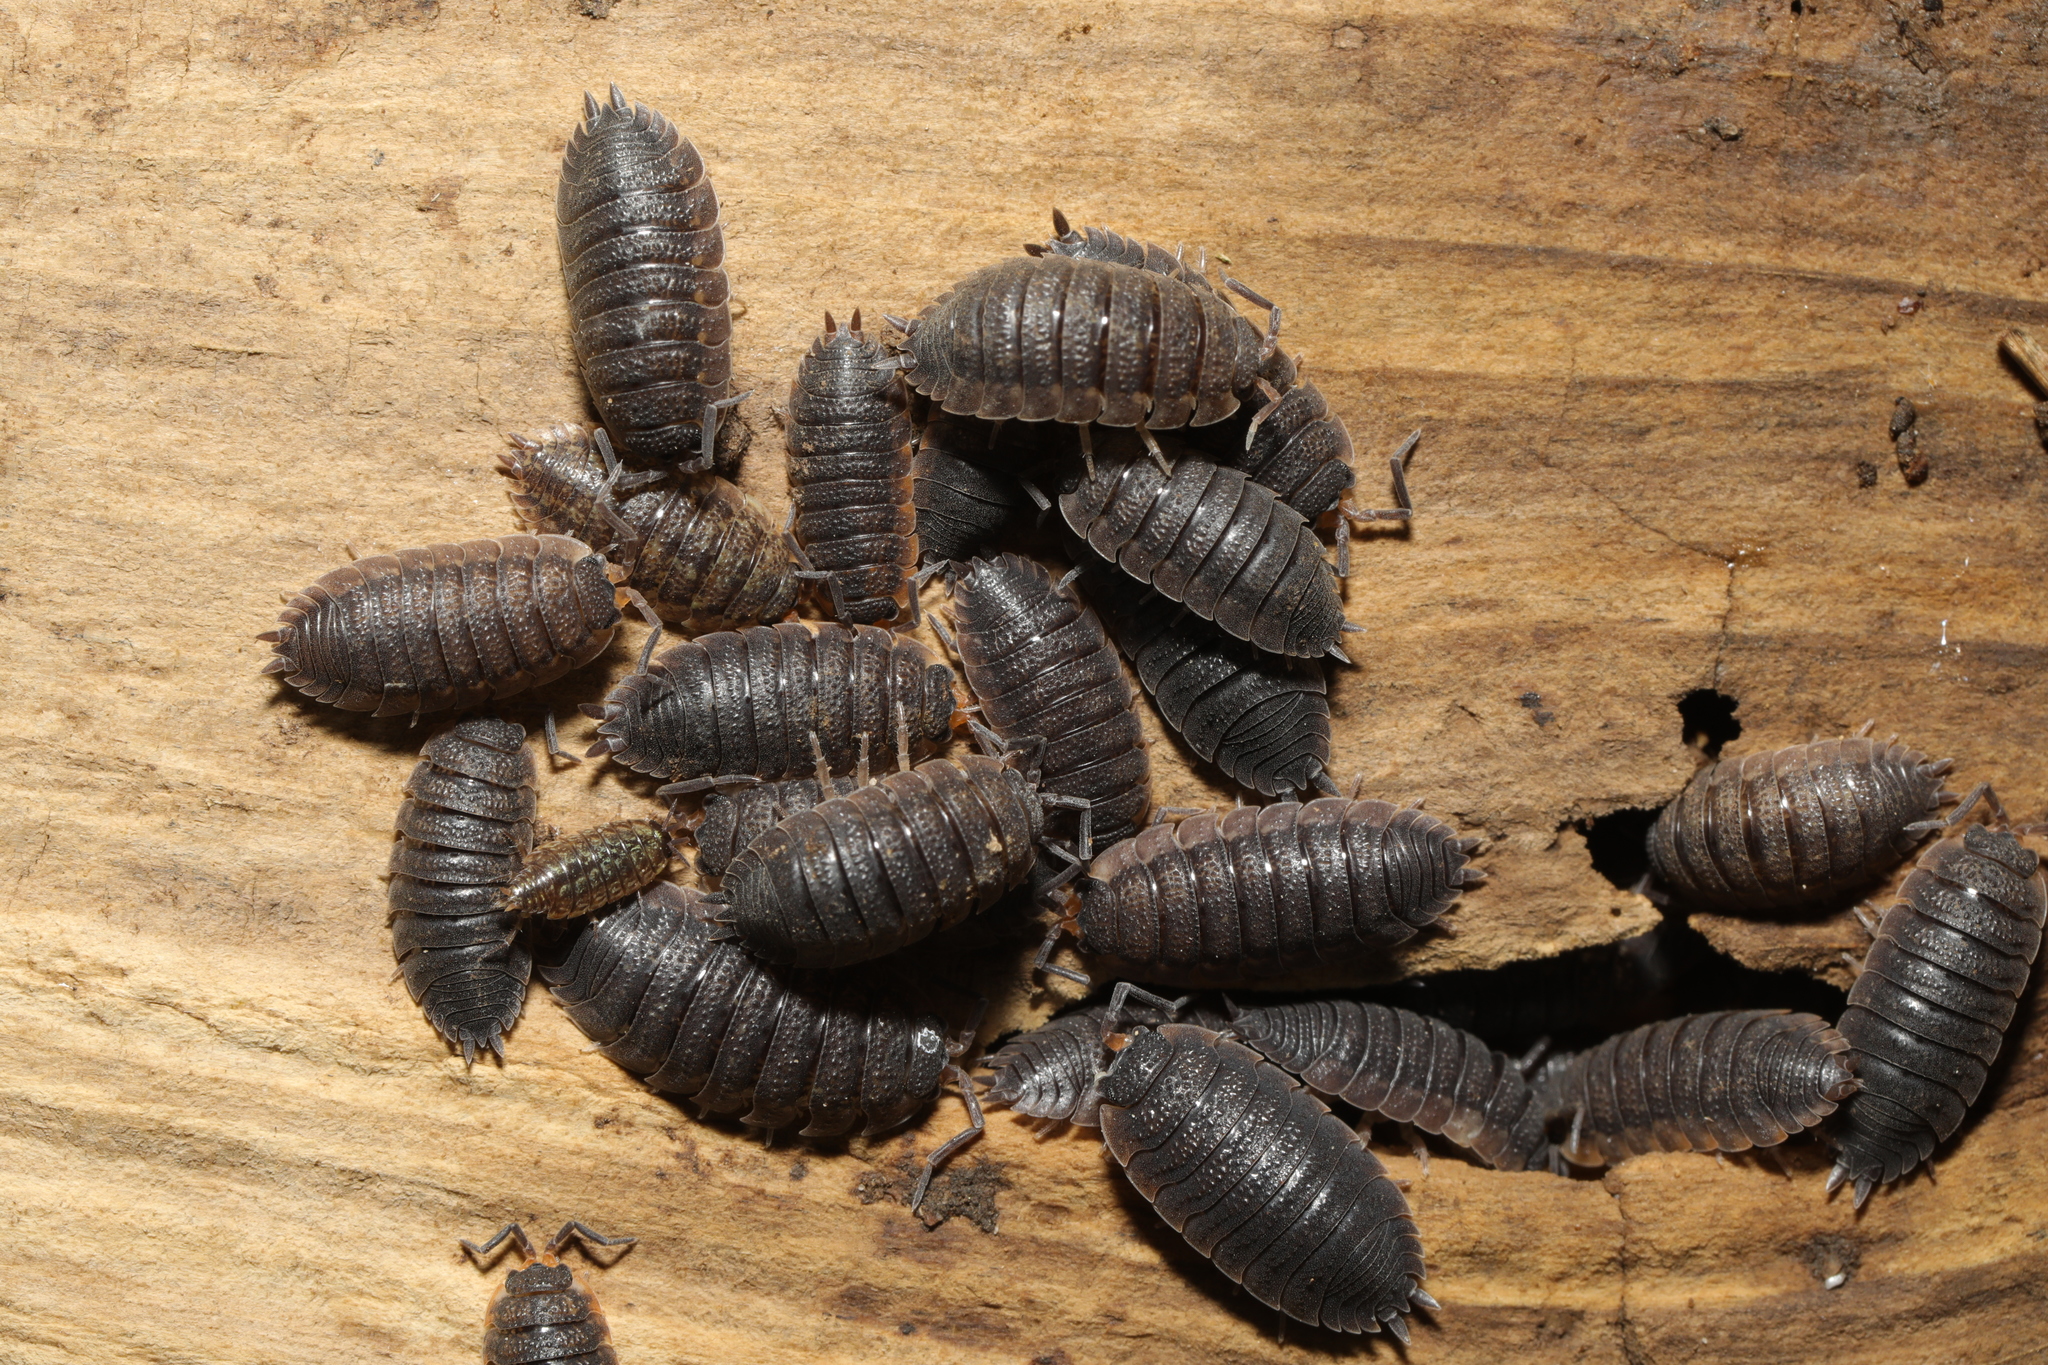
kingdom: Animalia
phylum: Arthropoda
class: Malacostraca
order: Isopoda
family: Porcellionidae
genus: Porcellio
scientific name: Porcellio scaber
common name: Common rough woodlouse
